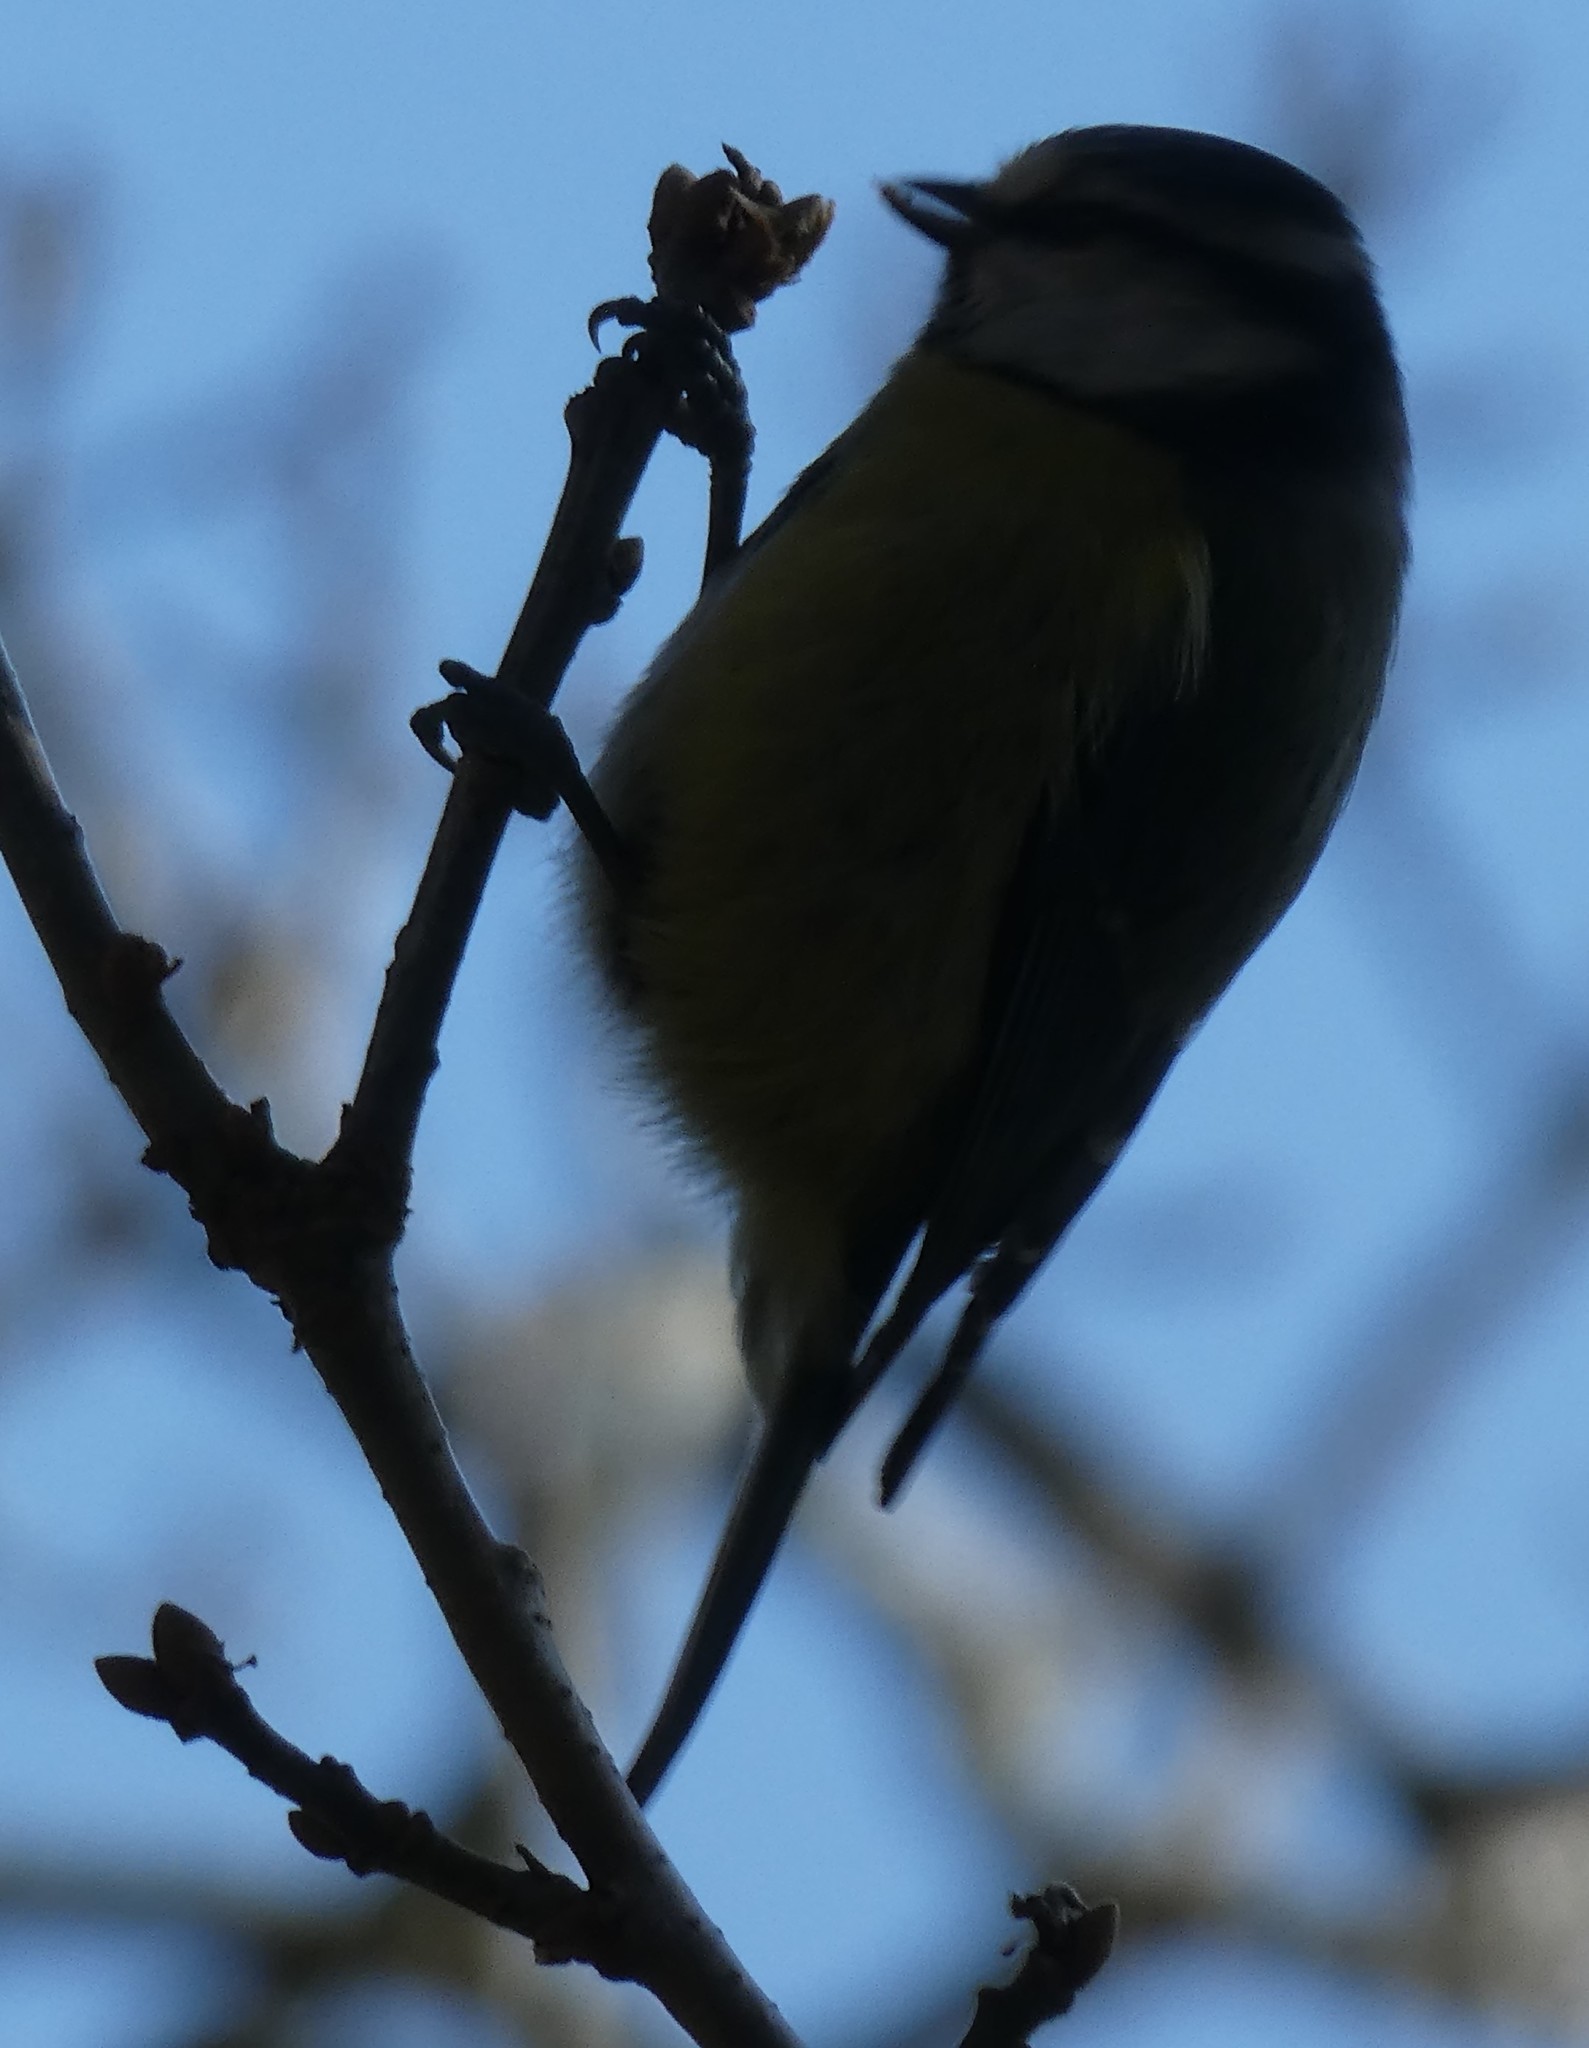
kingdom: Animalia
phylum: Chordata
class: Aves
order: Passeriformes
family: Paridae
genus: Cyanistes
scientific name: Cyanistes caeruleus
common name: Eurasian blue tit
